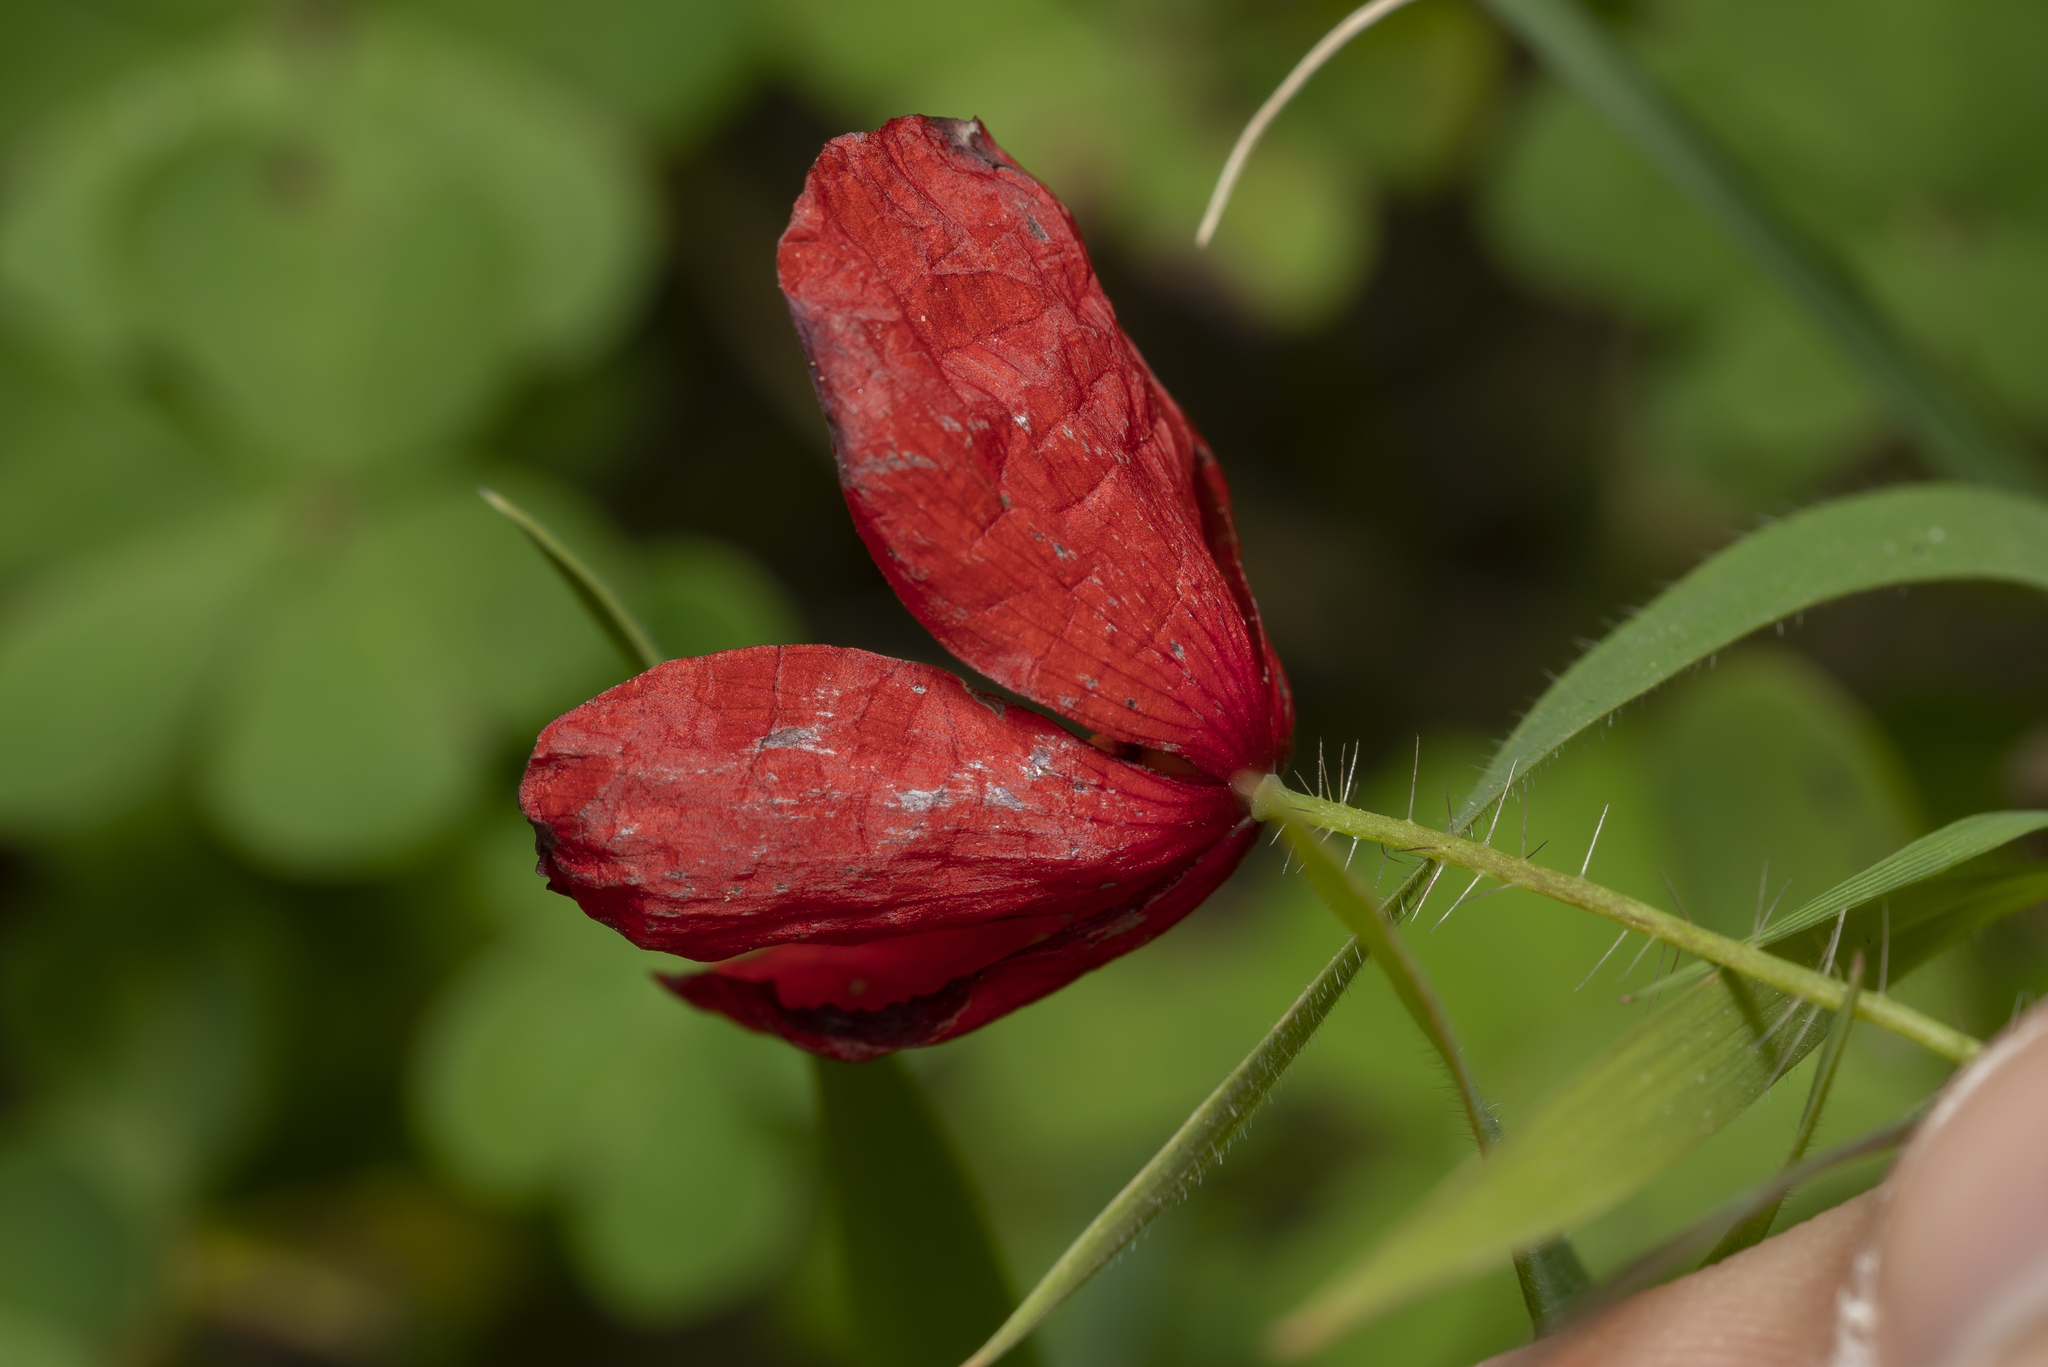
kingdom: Plantae
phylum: Tracheophyta
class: Magnoliopsida
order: Ranunculales
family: Papaveraceae
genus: Papaver
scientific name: Papaver rhoeas
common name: Corn poppy
